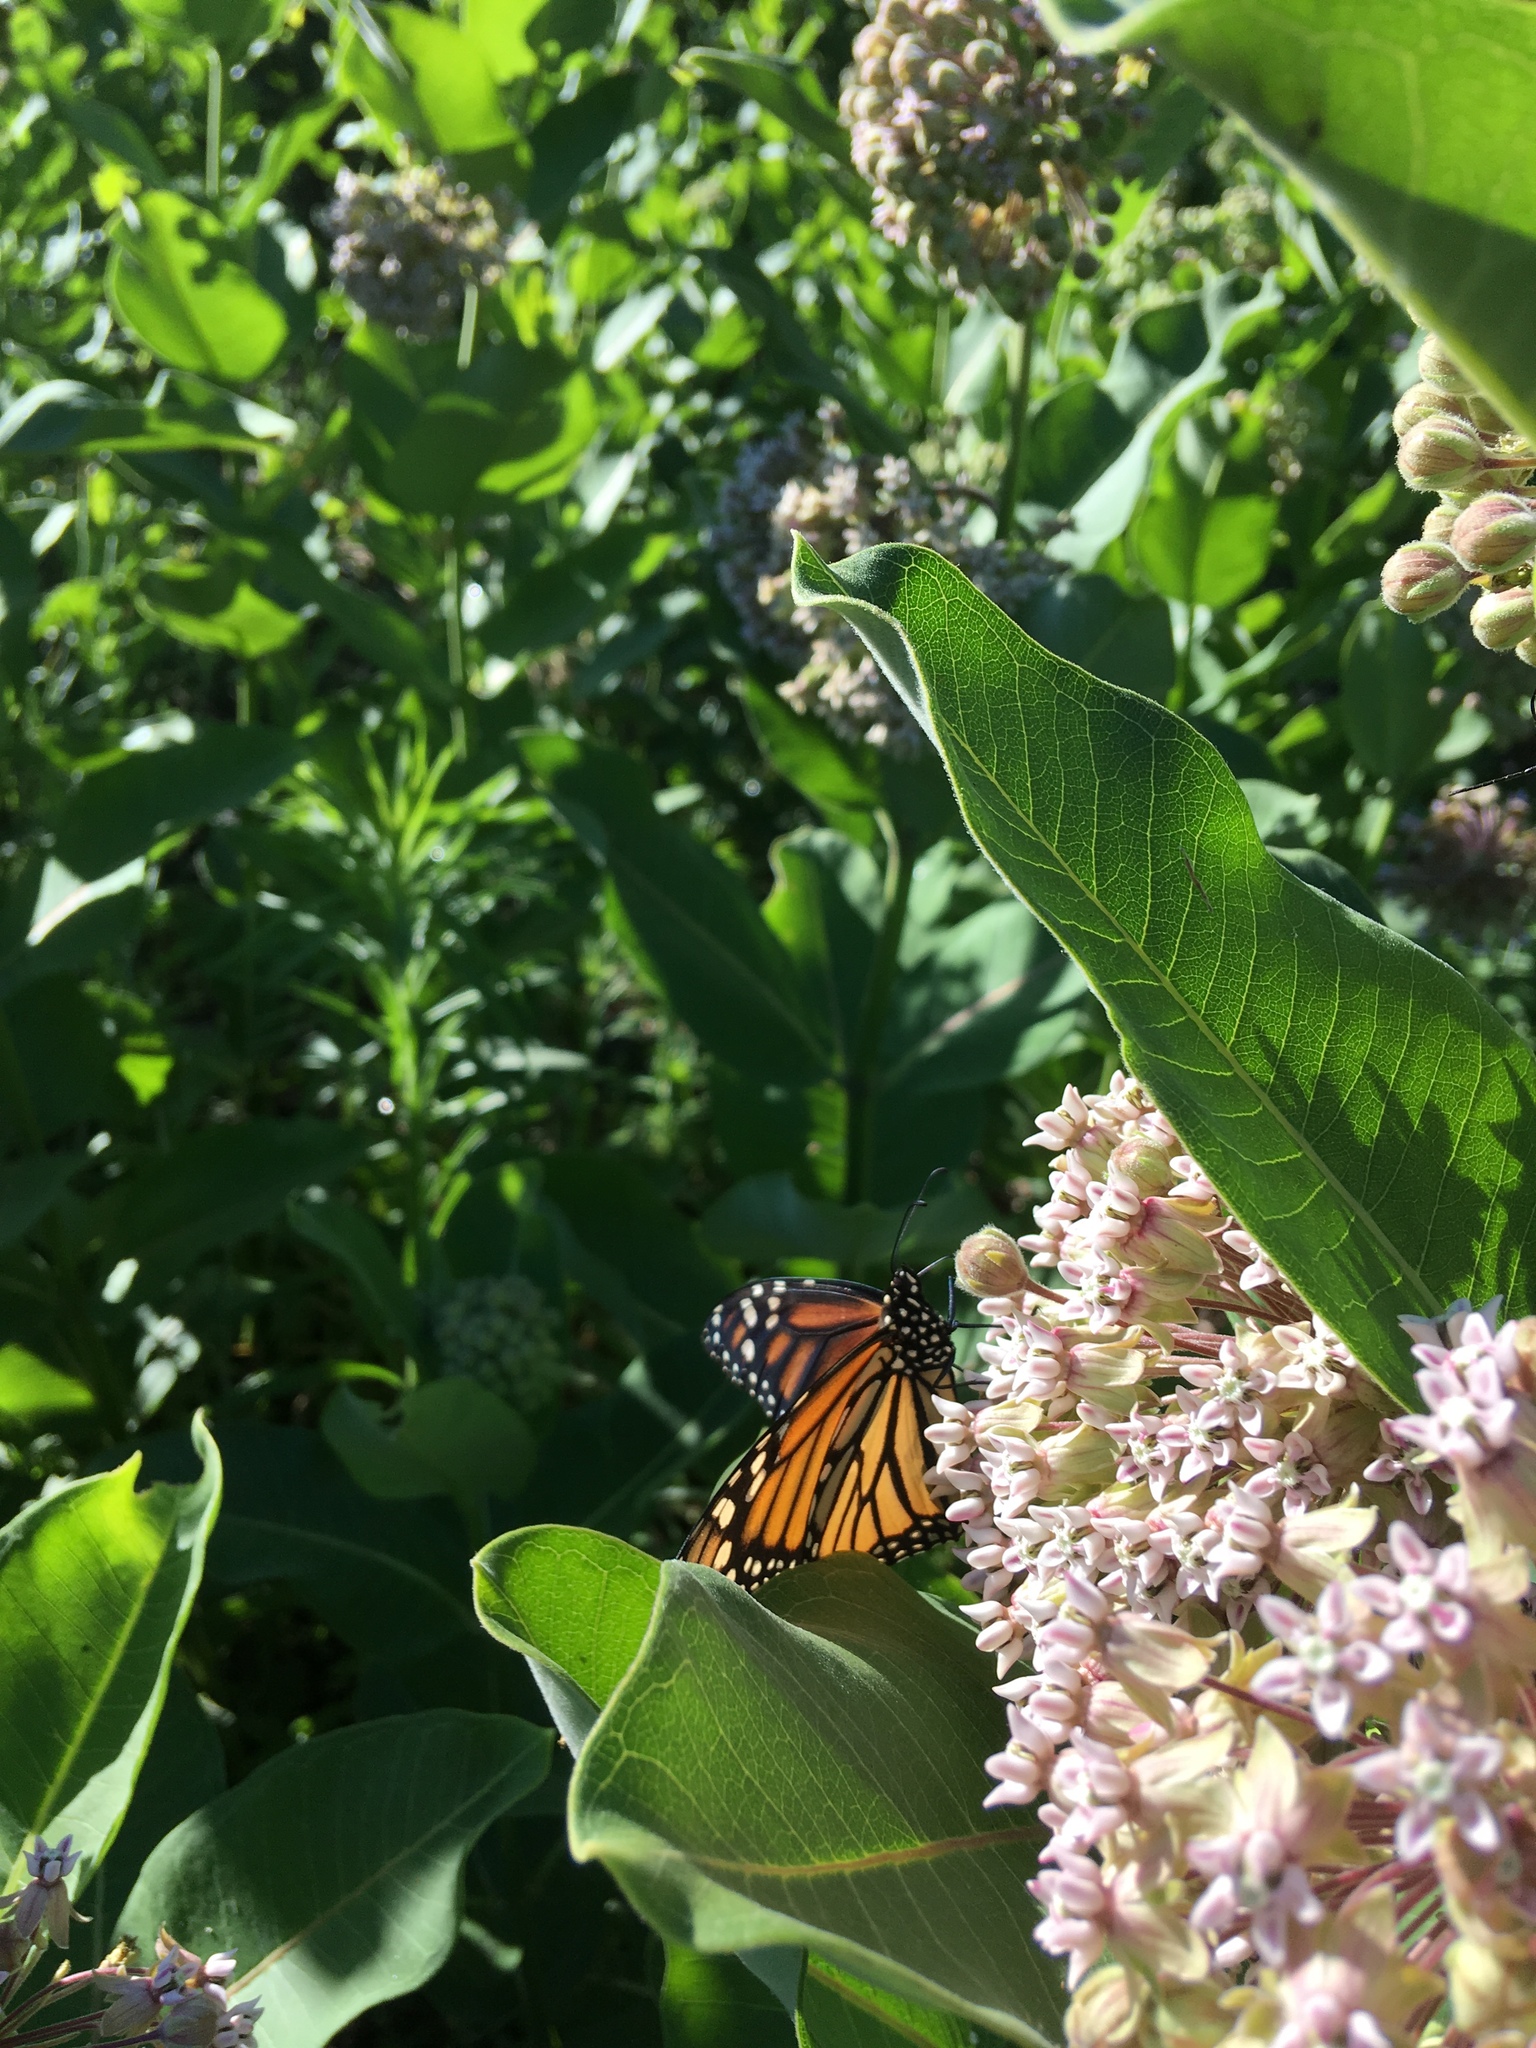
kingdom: Animalia
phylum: Arthropoda
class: Insecta
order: Lepidoptera
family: Nymphalidae
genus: Danaus
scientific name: Danaus plexippus
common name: Monarch
